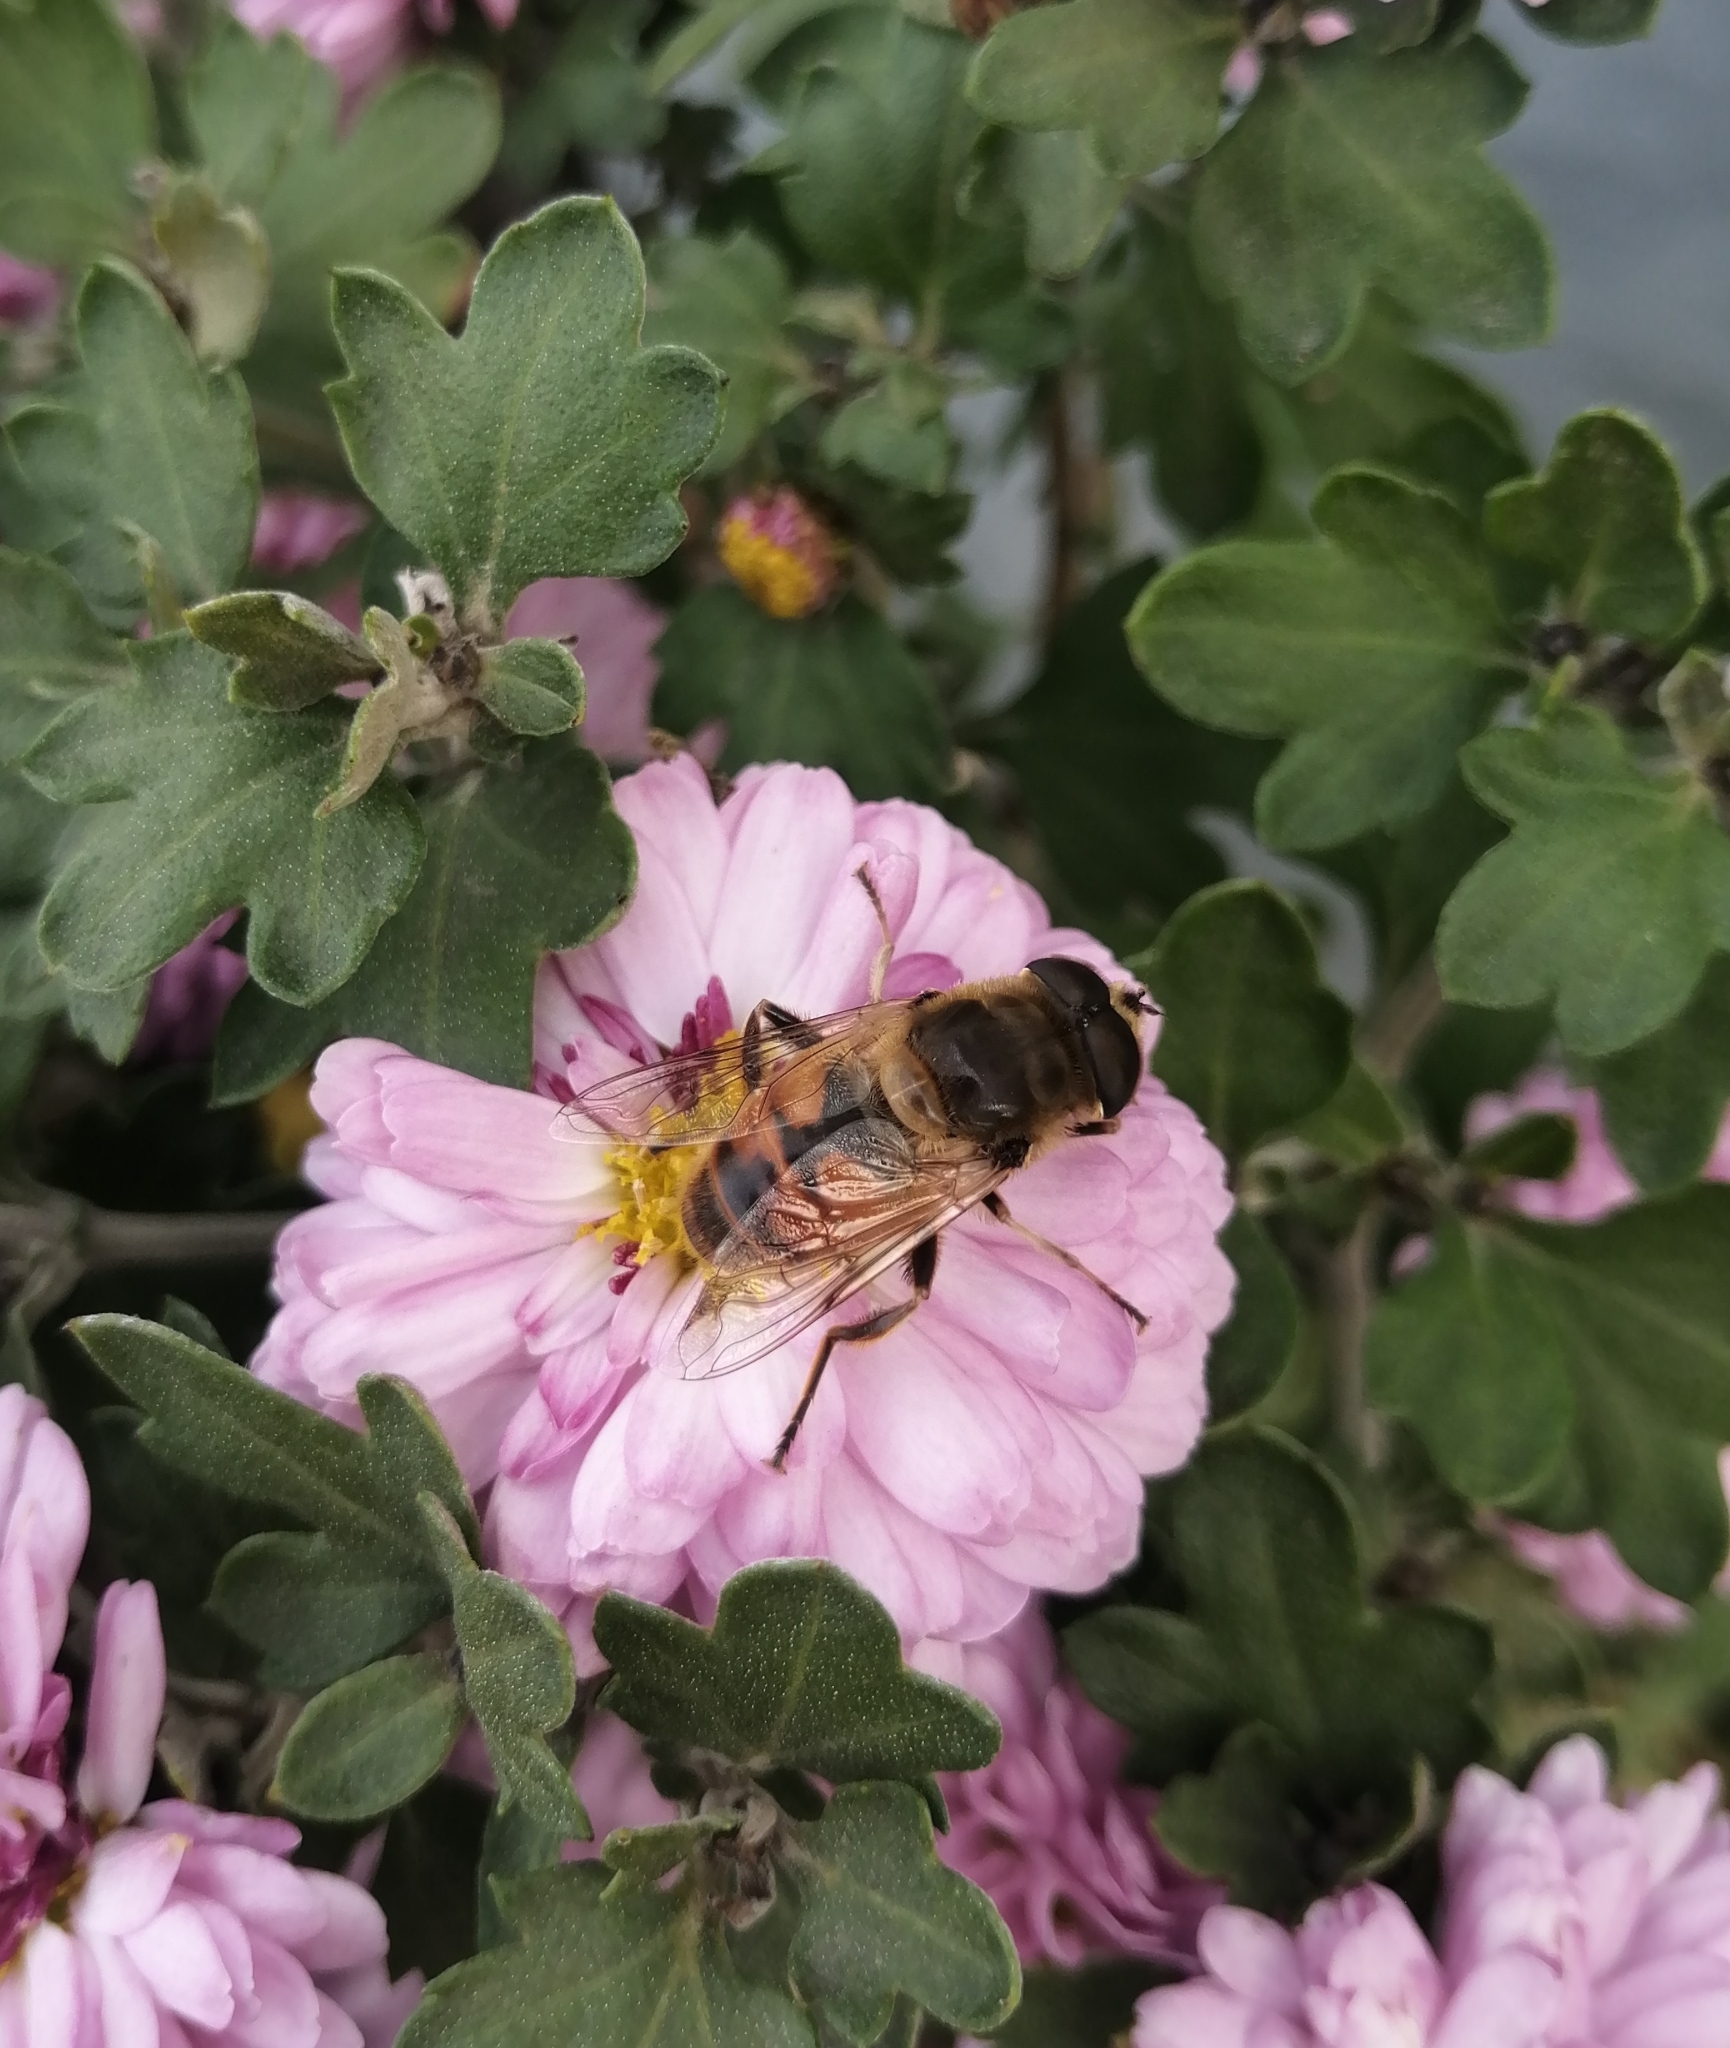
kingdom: Animalia
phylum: Arthropoda
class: Insecta
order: Diptera
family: Syrphidae
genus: Eristalis
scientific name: Eristalis tenax
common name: Drone fly
